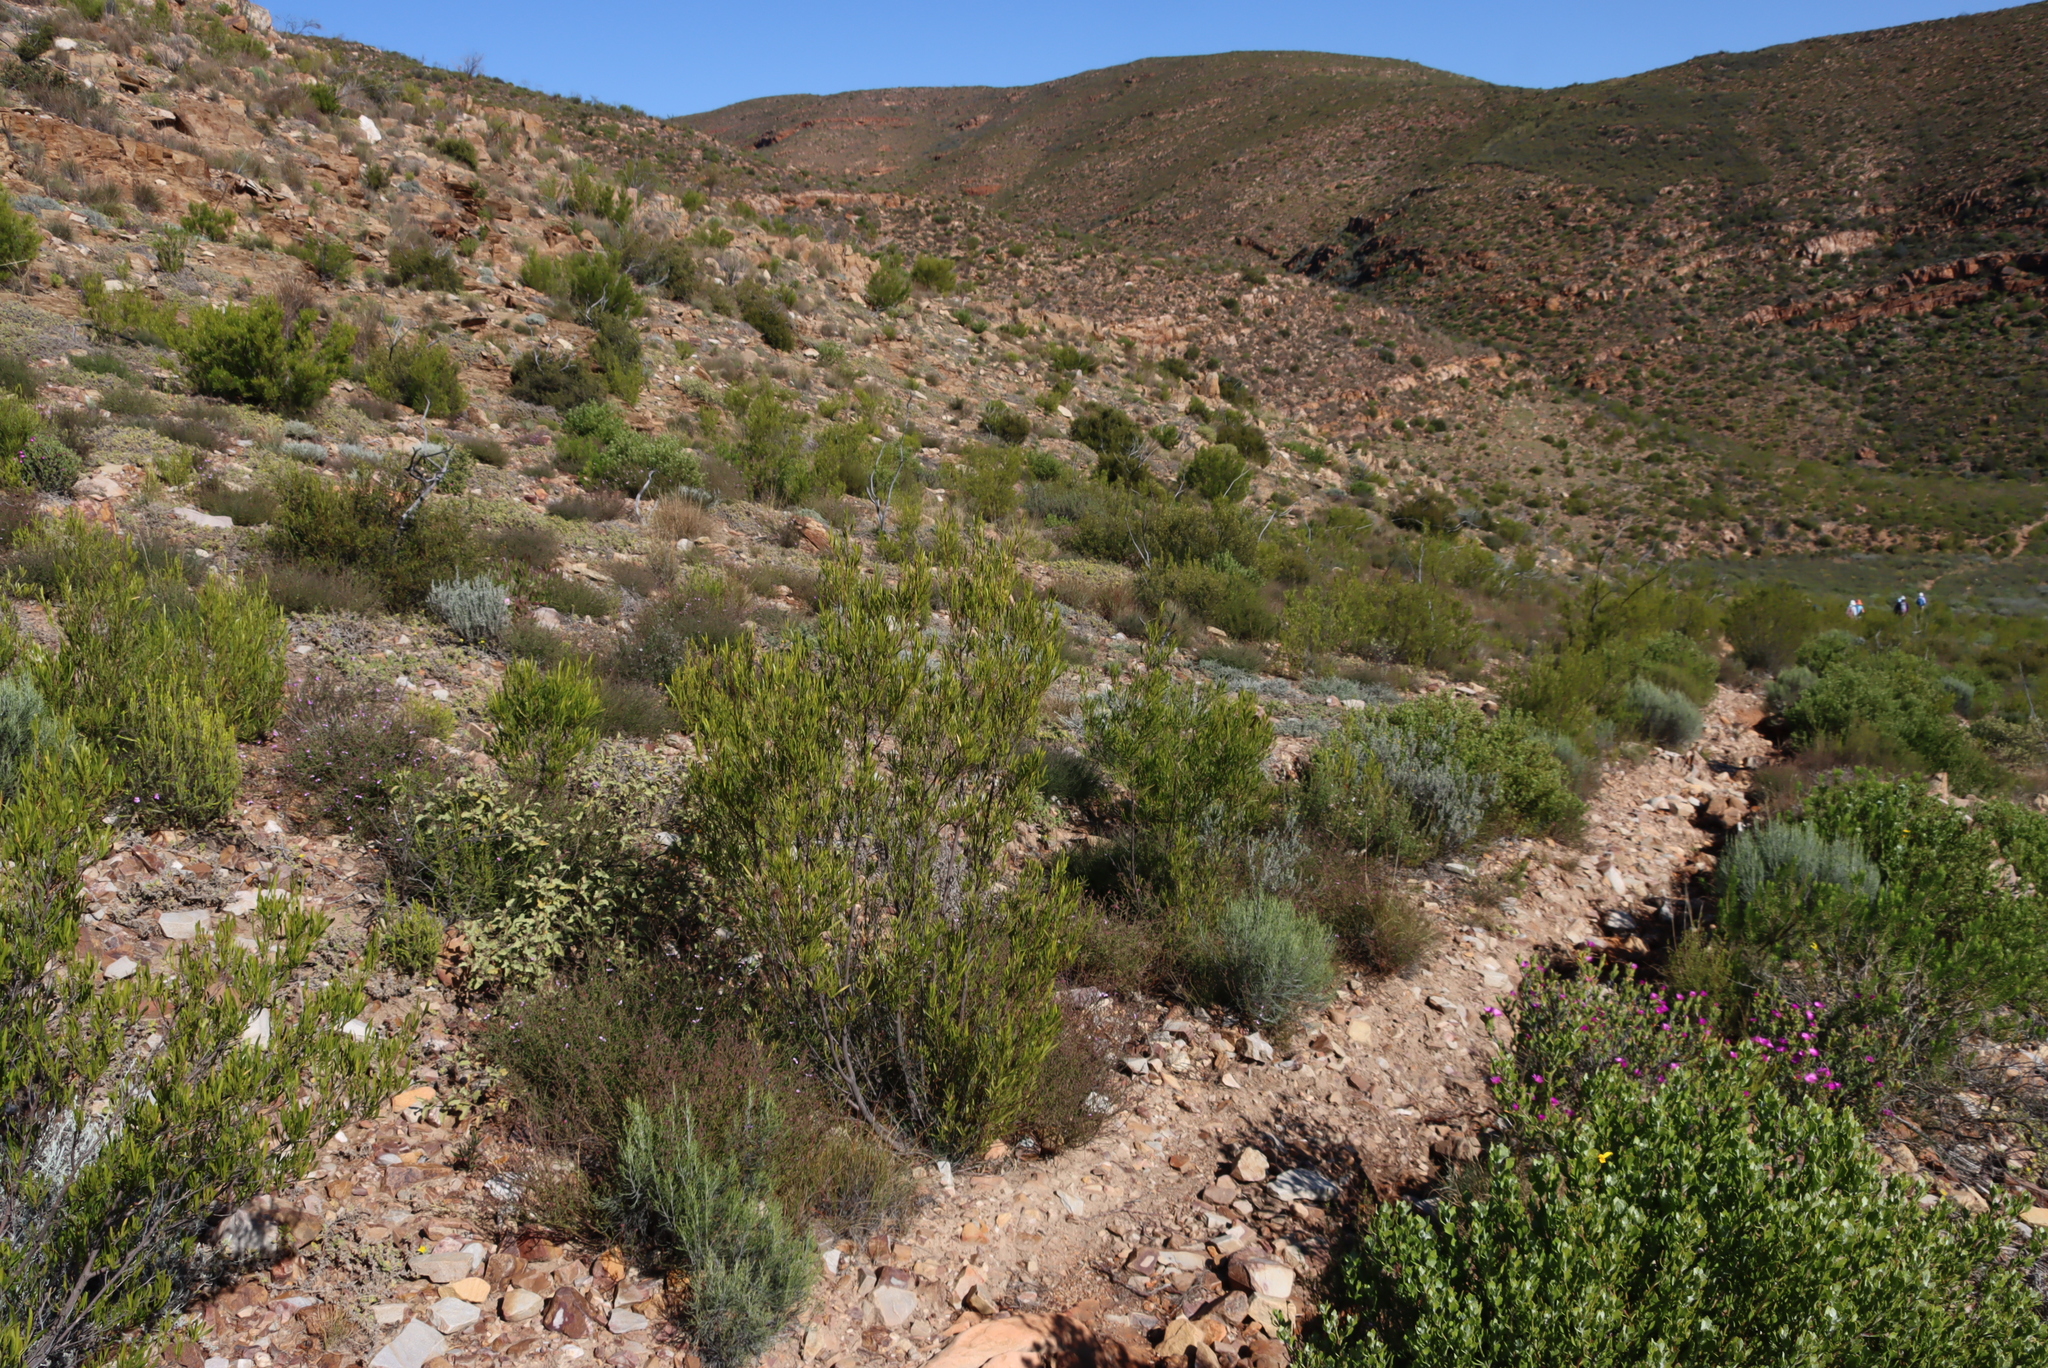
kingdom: Plantae
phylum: Tracheophyta
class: Magnoliopsida
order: Sapindales
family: Sapindaceae
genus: Dodonaea
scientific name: Dodonaea viscosa
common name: Hopbush
